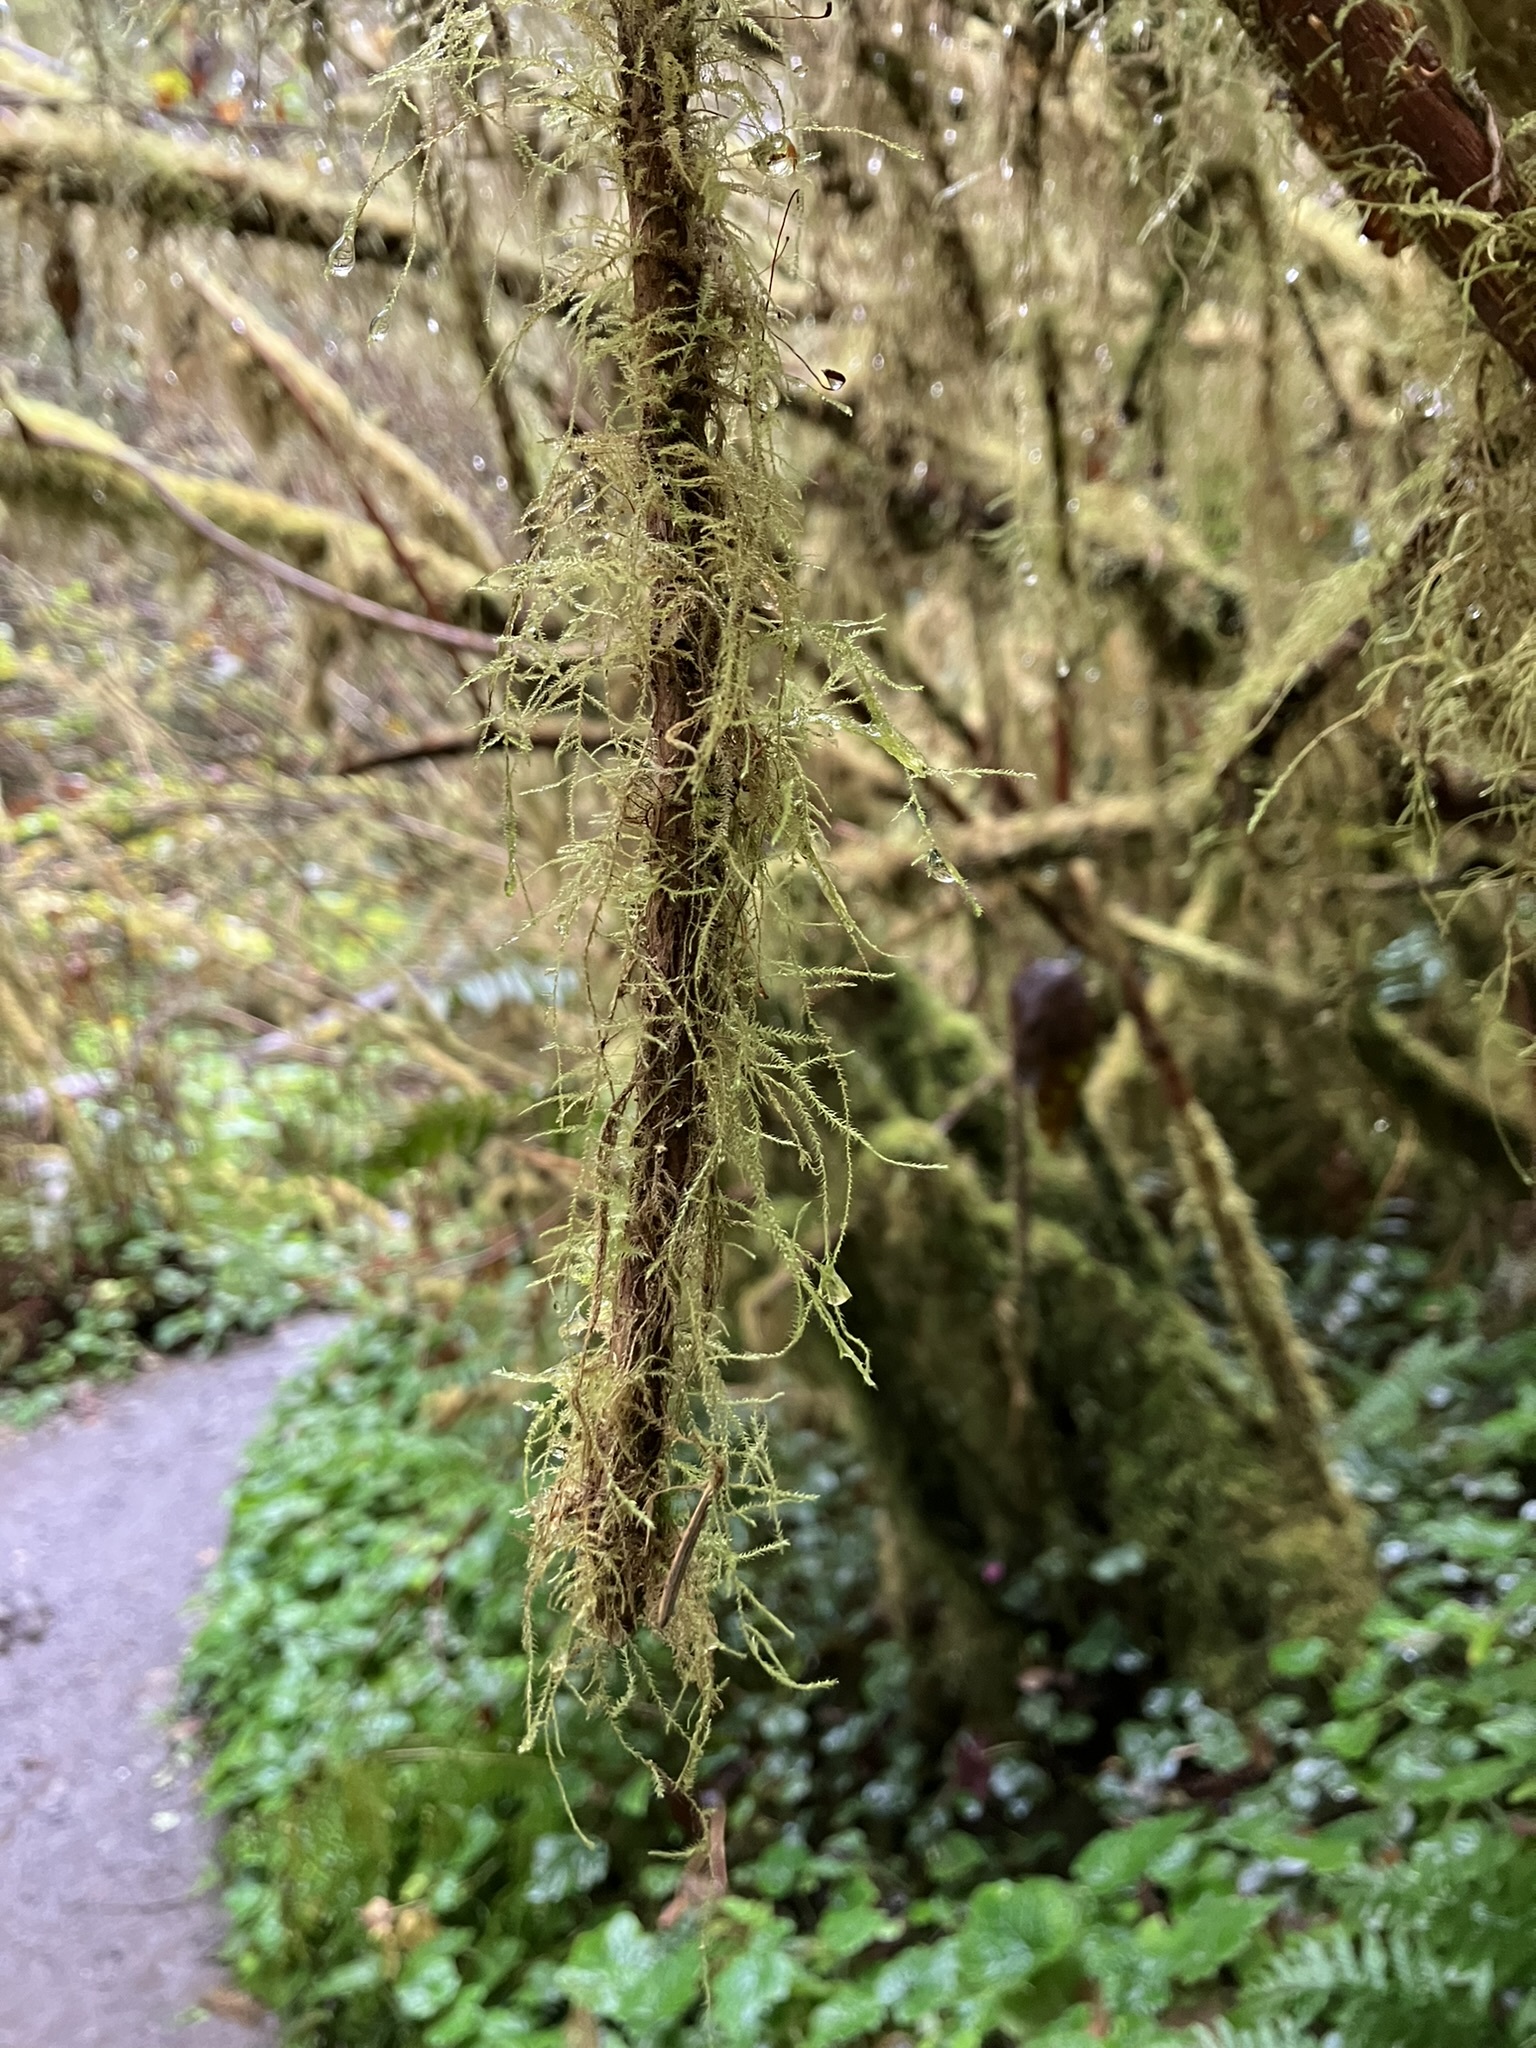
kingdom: Plantae
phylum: Bryophyta
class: Bryopsida
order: Hypnales
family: Lembophyllaceae
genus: Pseudisothecium
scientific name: Pseudisothecium stoloniferum
